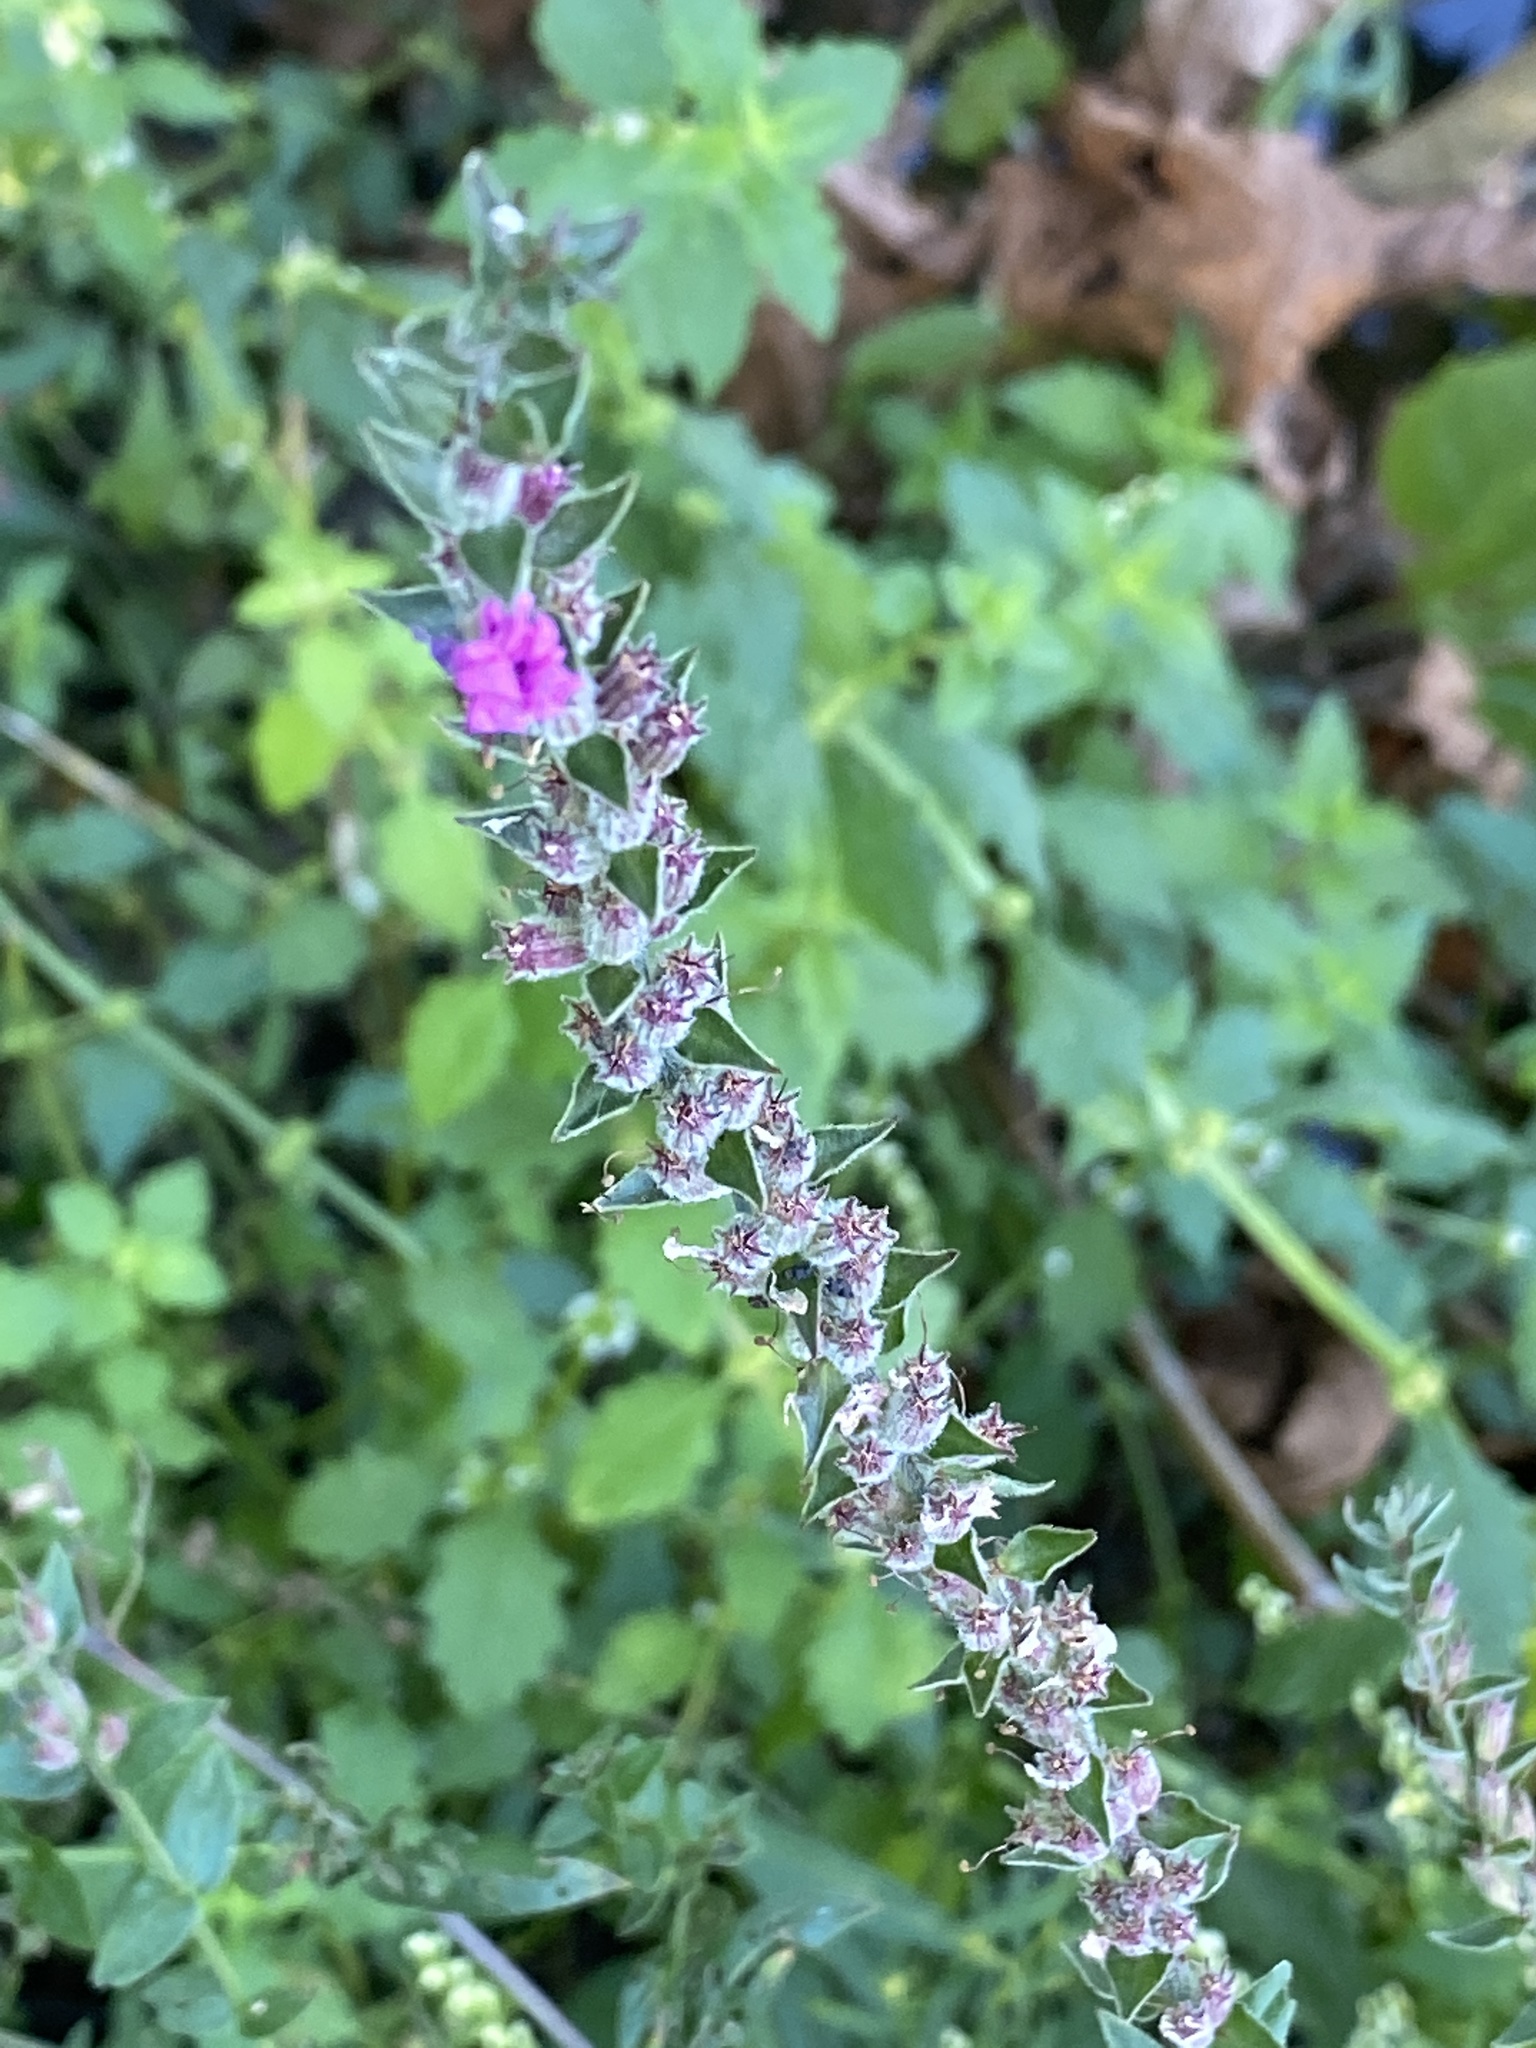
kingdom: Plantae
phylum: Tracheophyta
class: Magnoliopsida
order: Myrtales
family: Lythraceae
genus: Lythrum
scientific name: Lythrum salicaria
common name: Purple loosestrife
